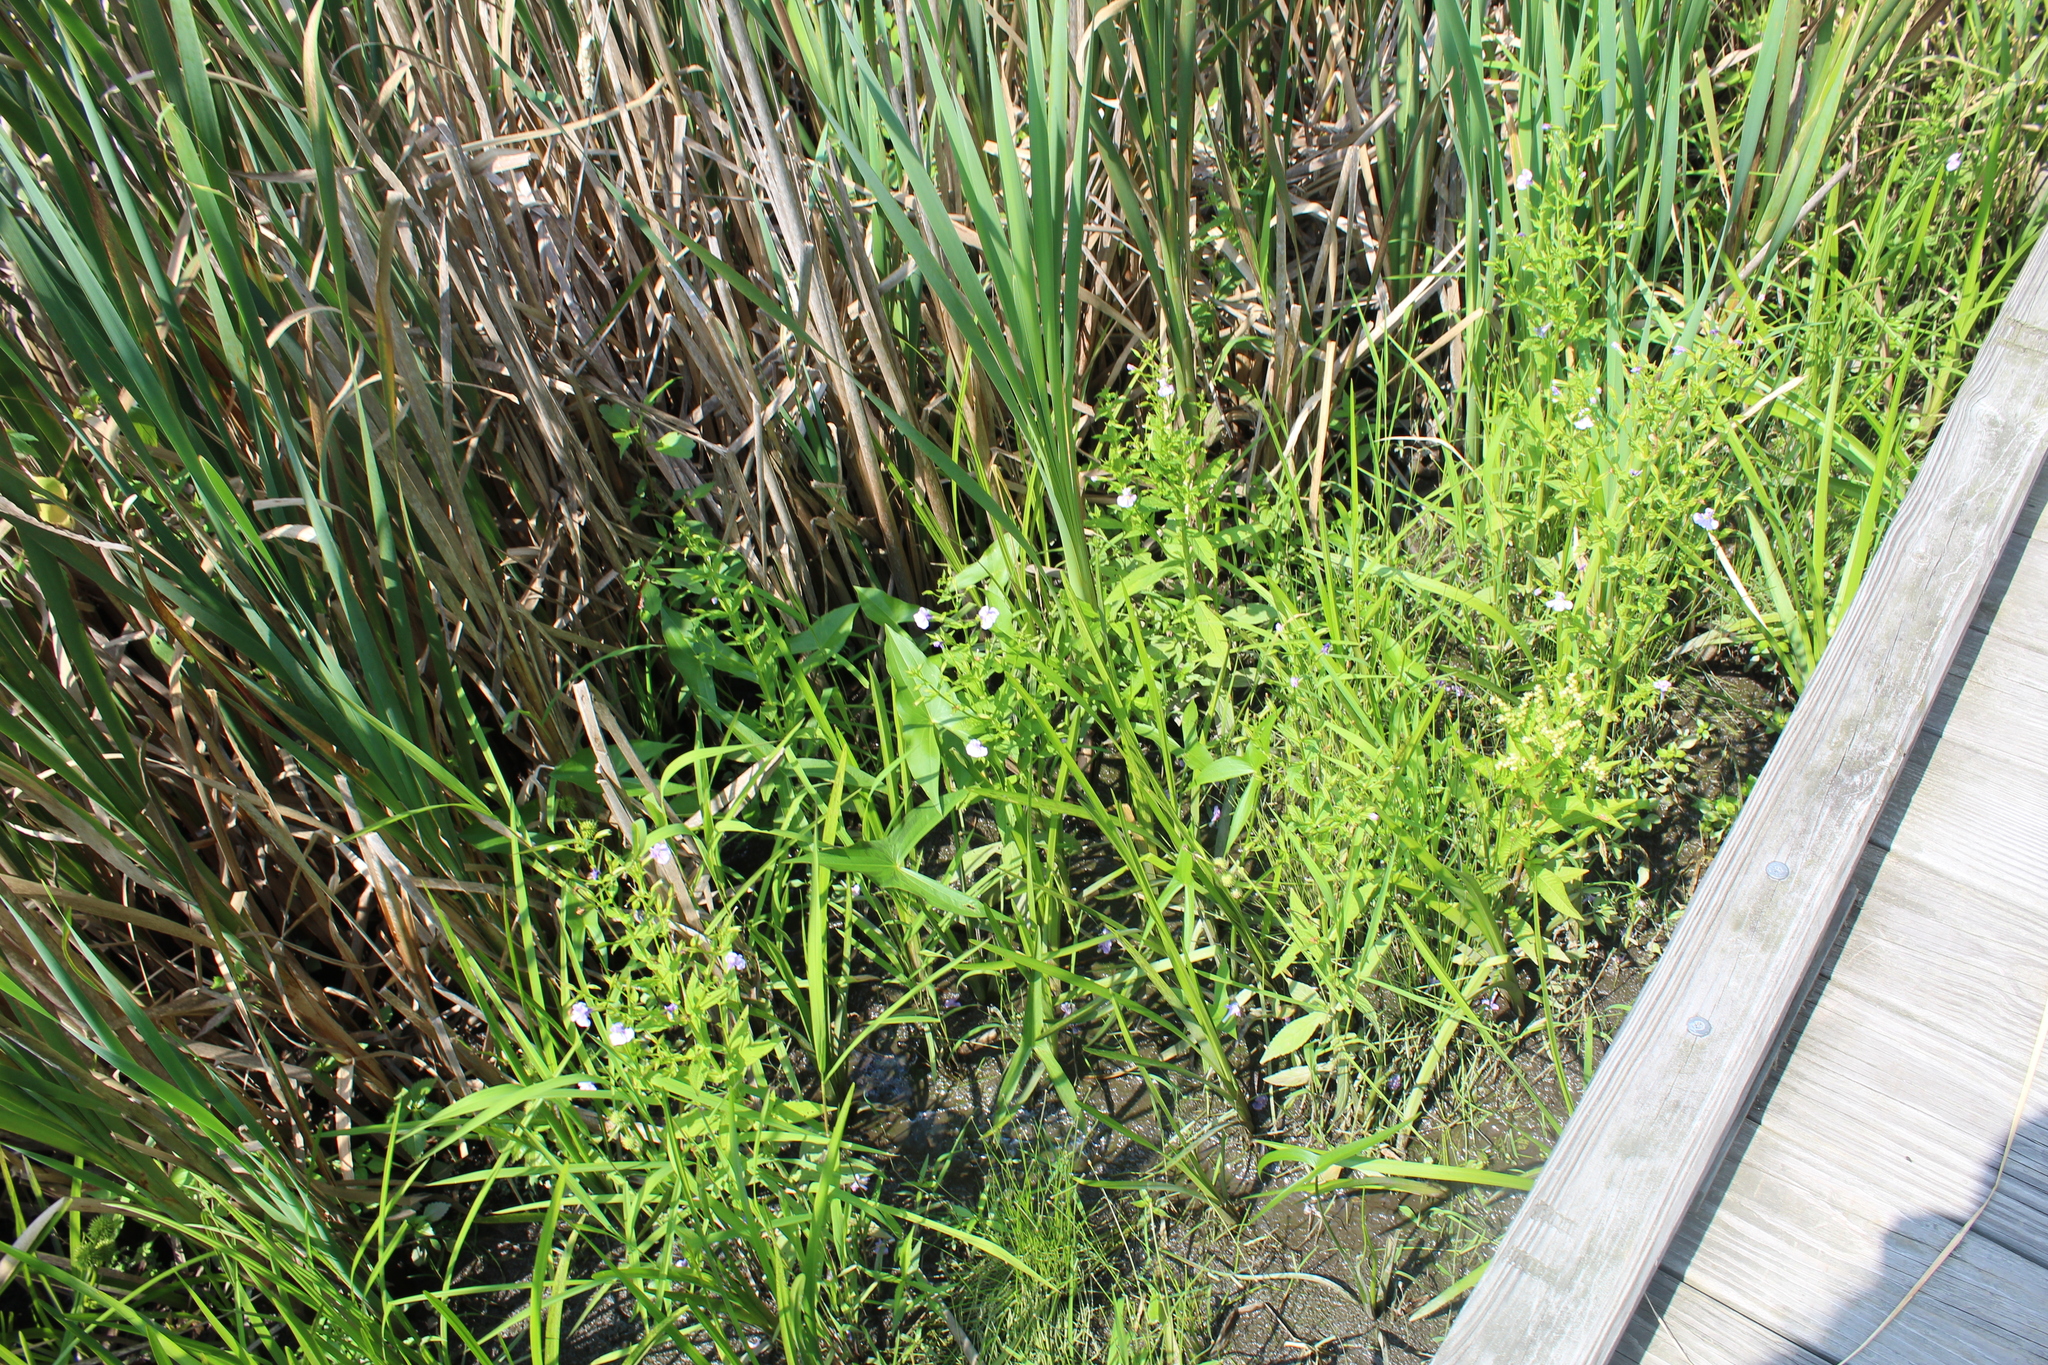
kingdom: Plantae
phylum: Tracheophyta
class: Magnoliopsida
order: Lamiales
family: Phrymaceae
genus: Mimulus
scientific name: Mimulus ringens
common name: Allegheny monkeyflower
